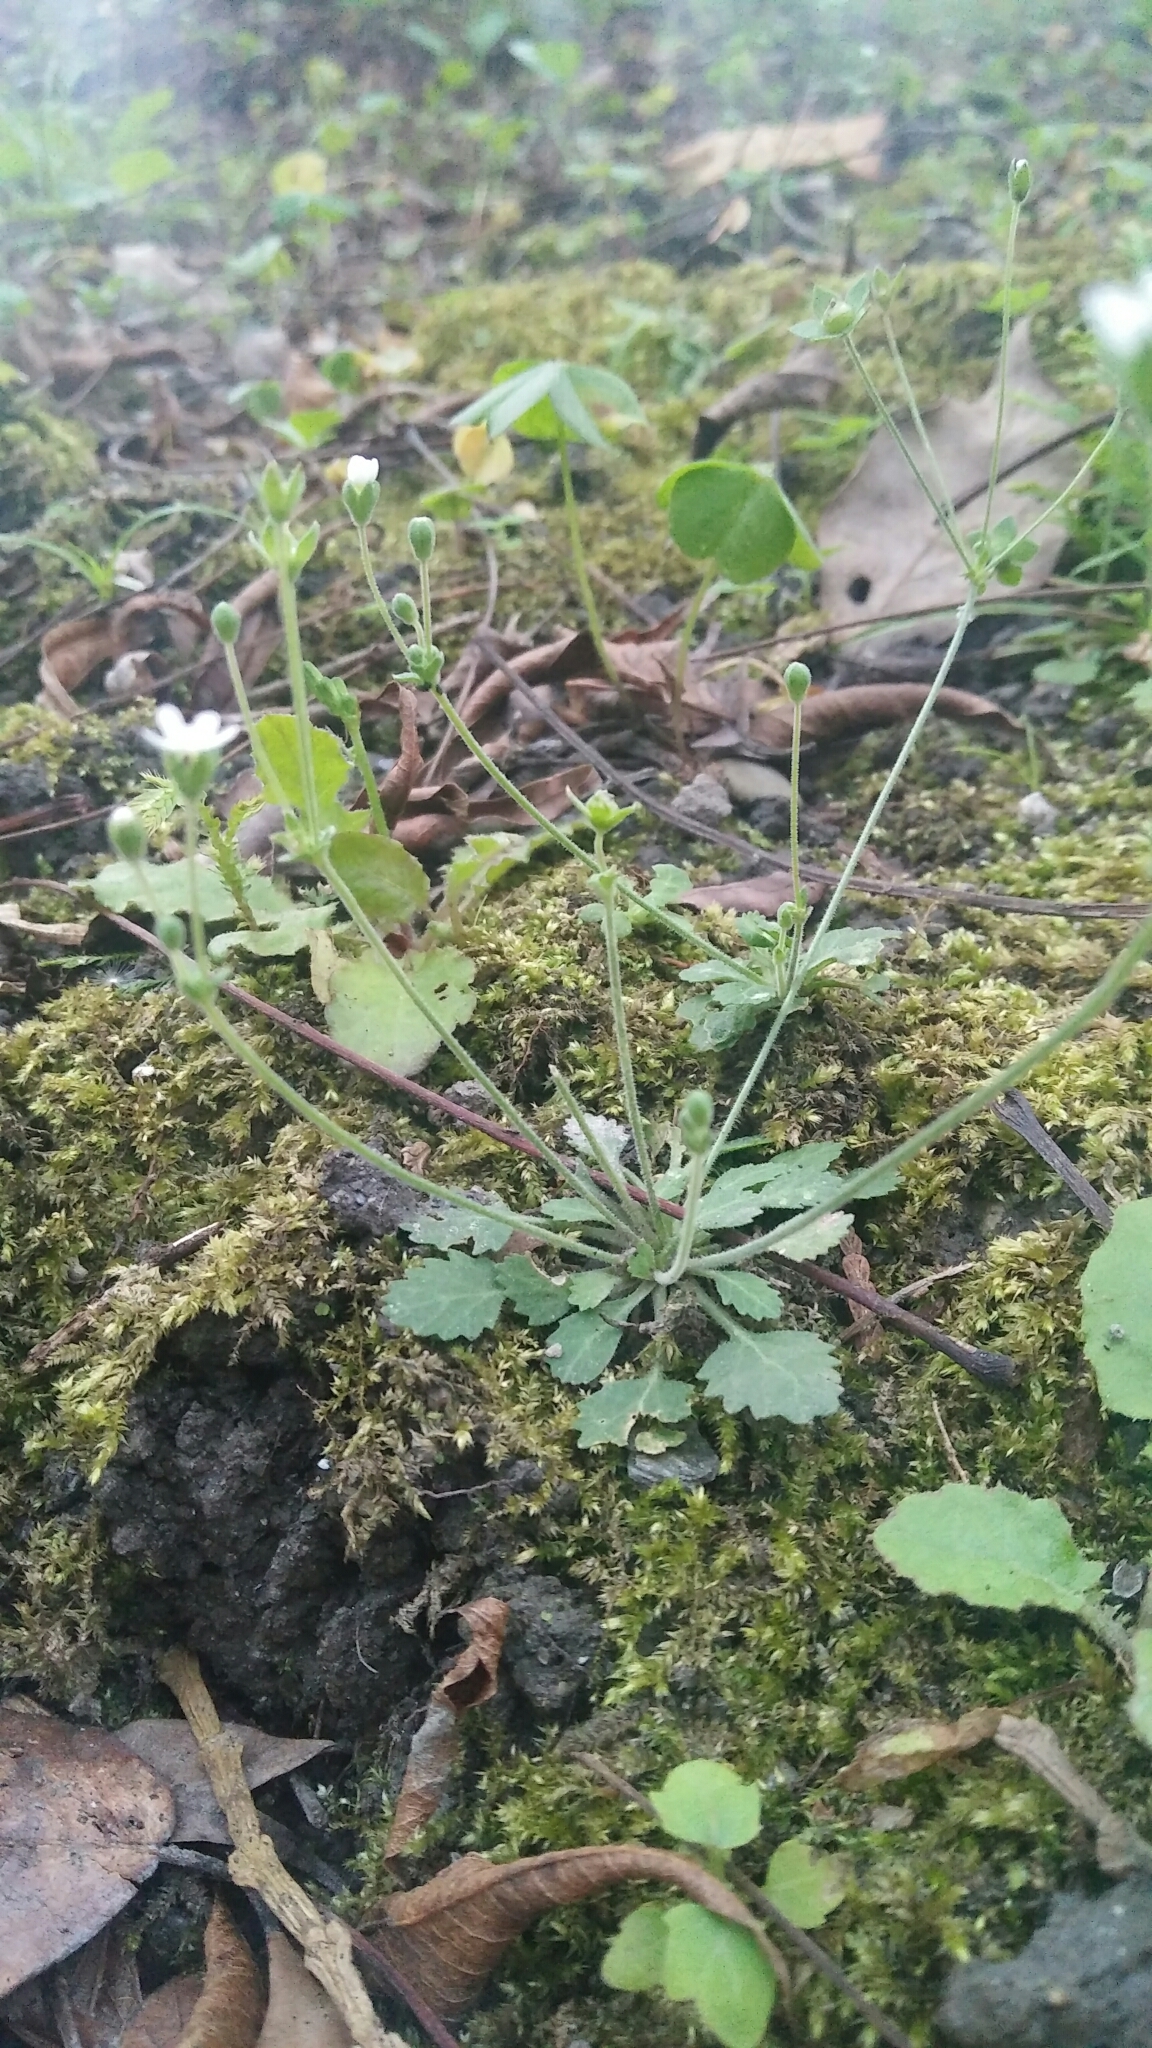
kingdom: Plantae
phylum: Tracheophyta
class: Magnoliopsida
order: Ericales
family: Primulaceae
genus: Androsace
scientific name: Androsace umbellata
